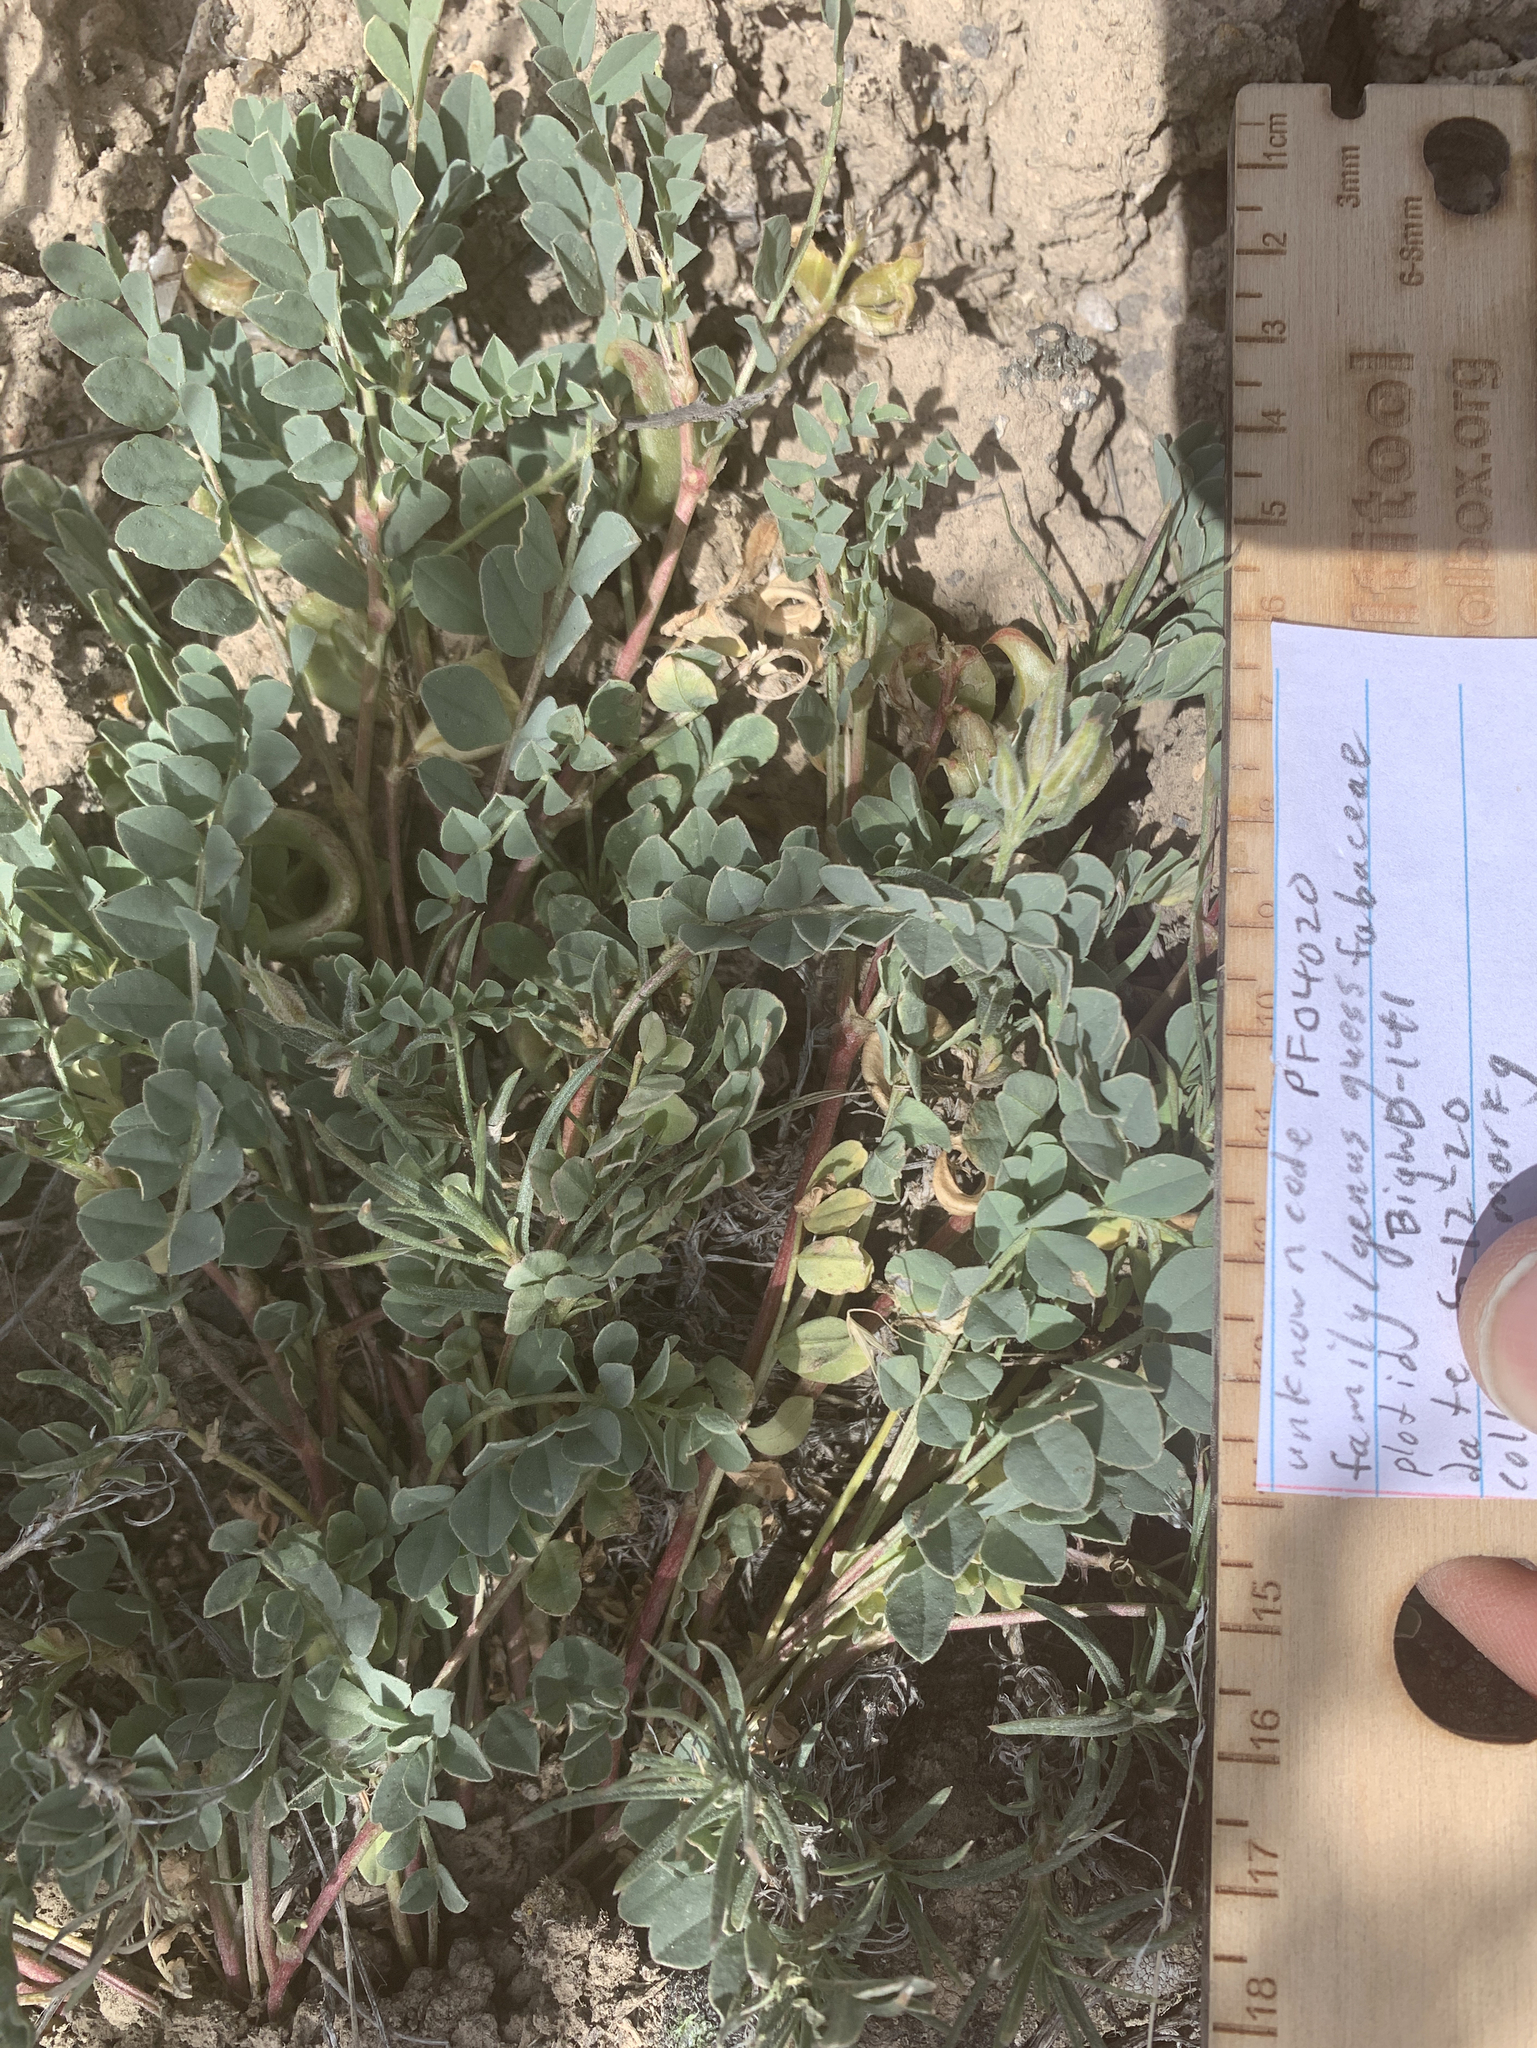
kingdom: Plantae
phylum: Tracheophyta
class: Magnoliopsida
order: Fabales
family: Fabaceae
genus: Astragalus
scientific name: Astragalus lentiginosus
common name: Freckled milkvetch
